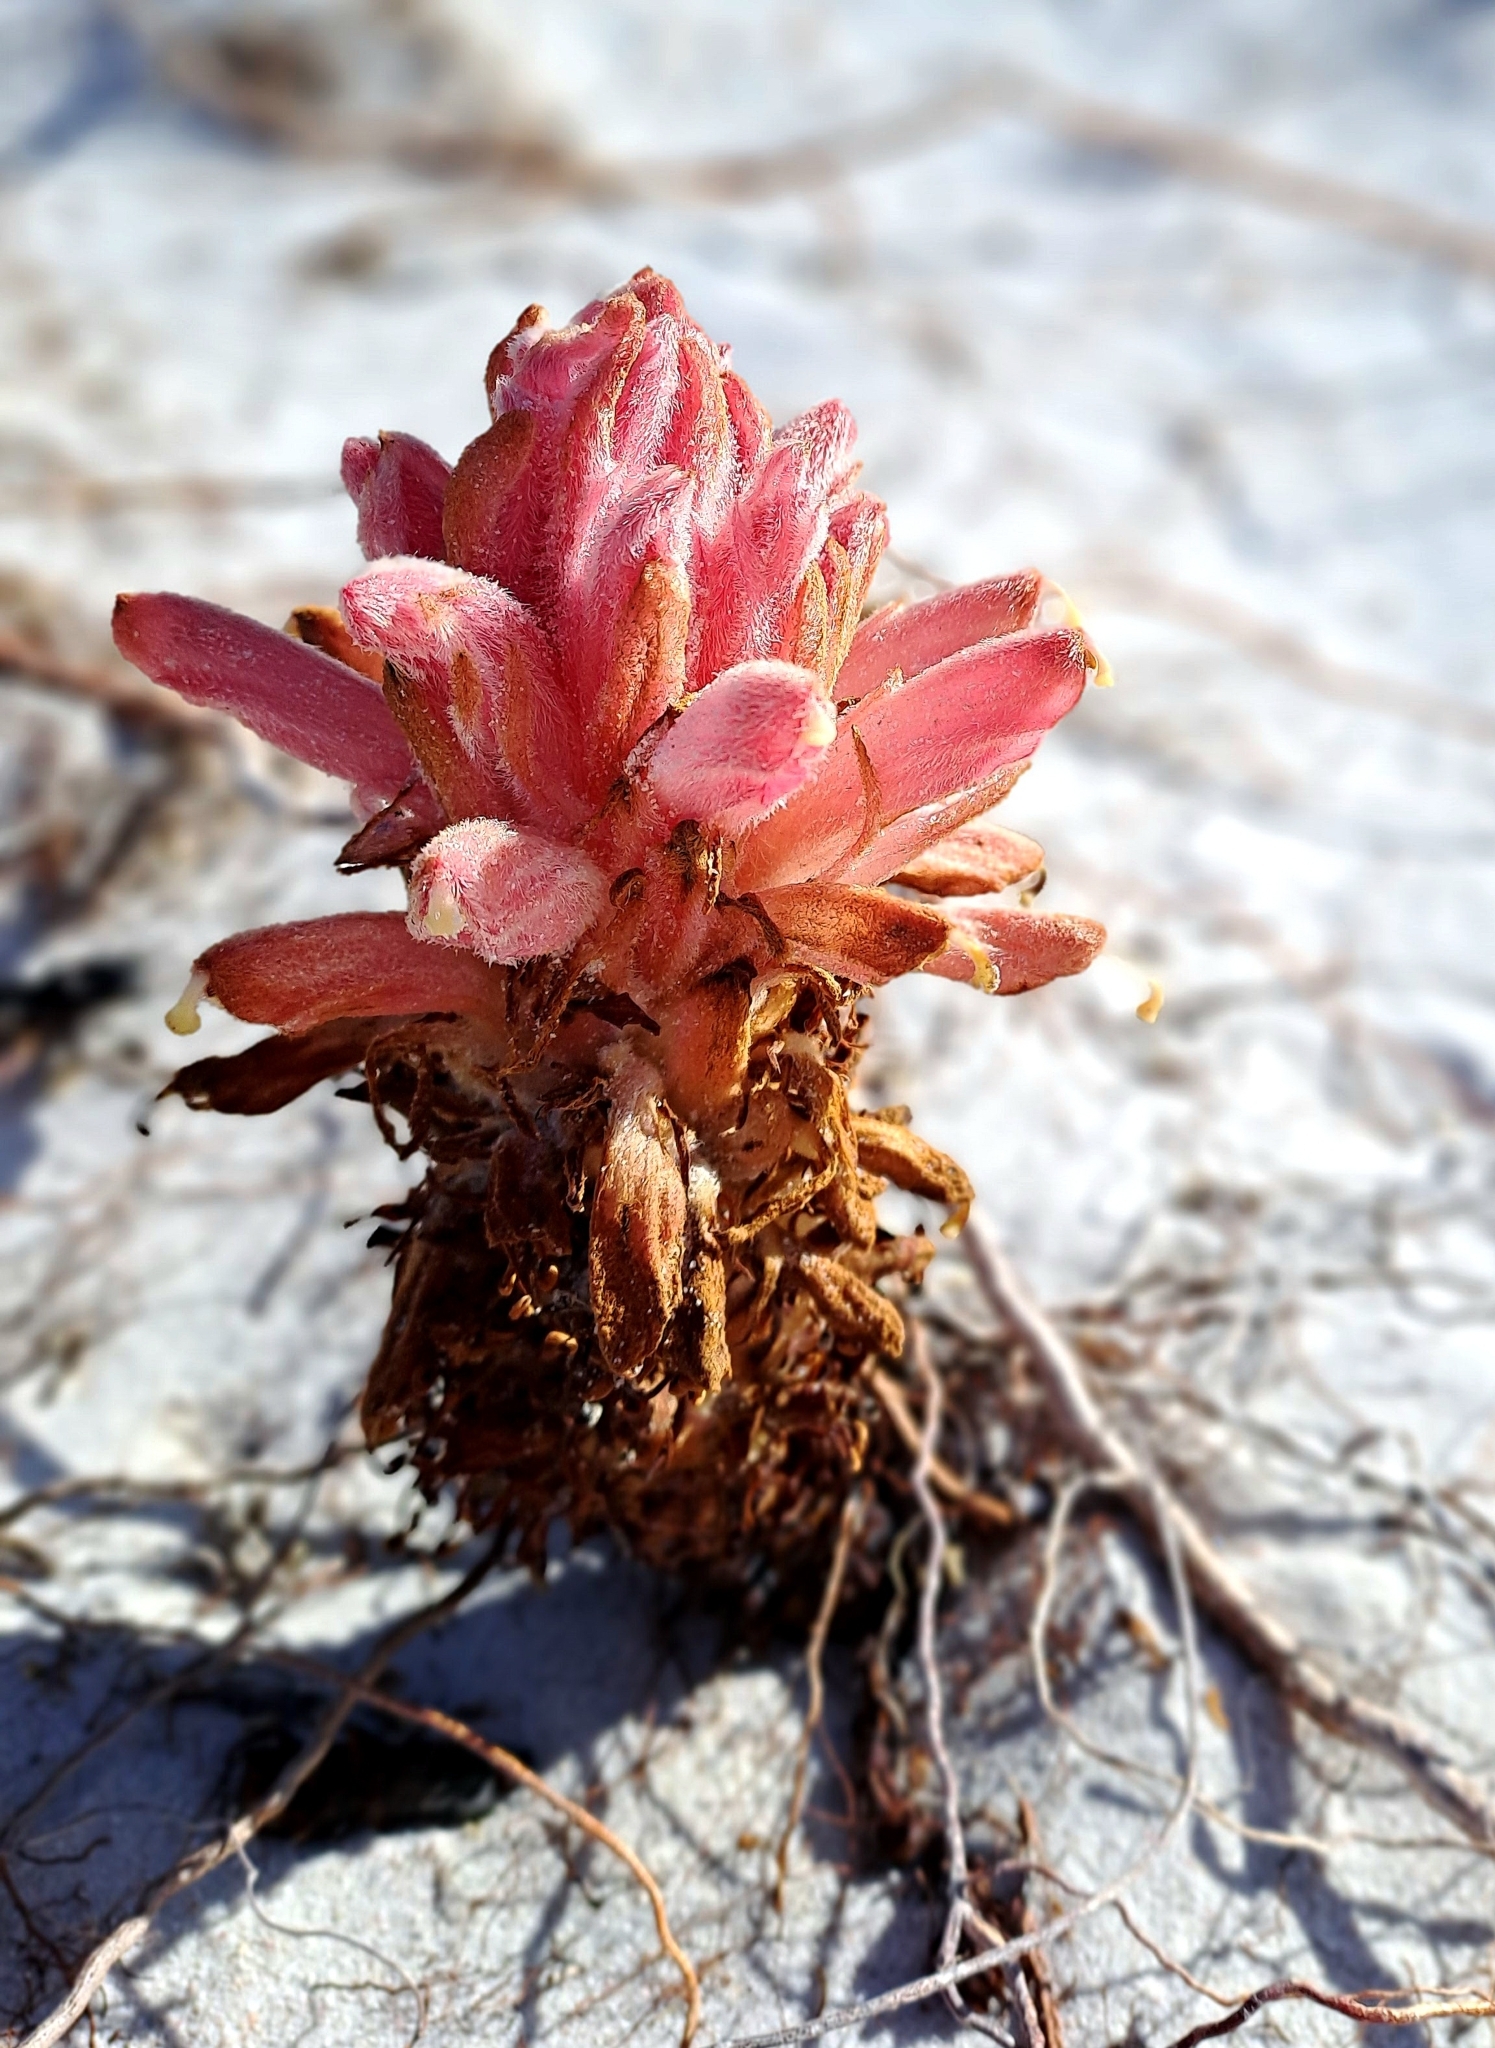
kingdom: Plantae
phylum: Tracheophyta
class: Magnoliopsida
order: Lamiales
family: Orobanchaceae
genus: Hyobanche
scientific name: Hyobanche thinophila
